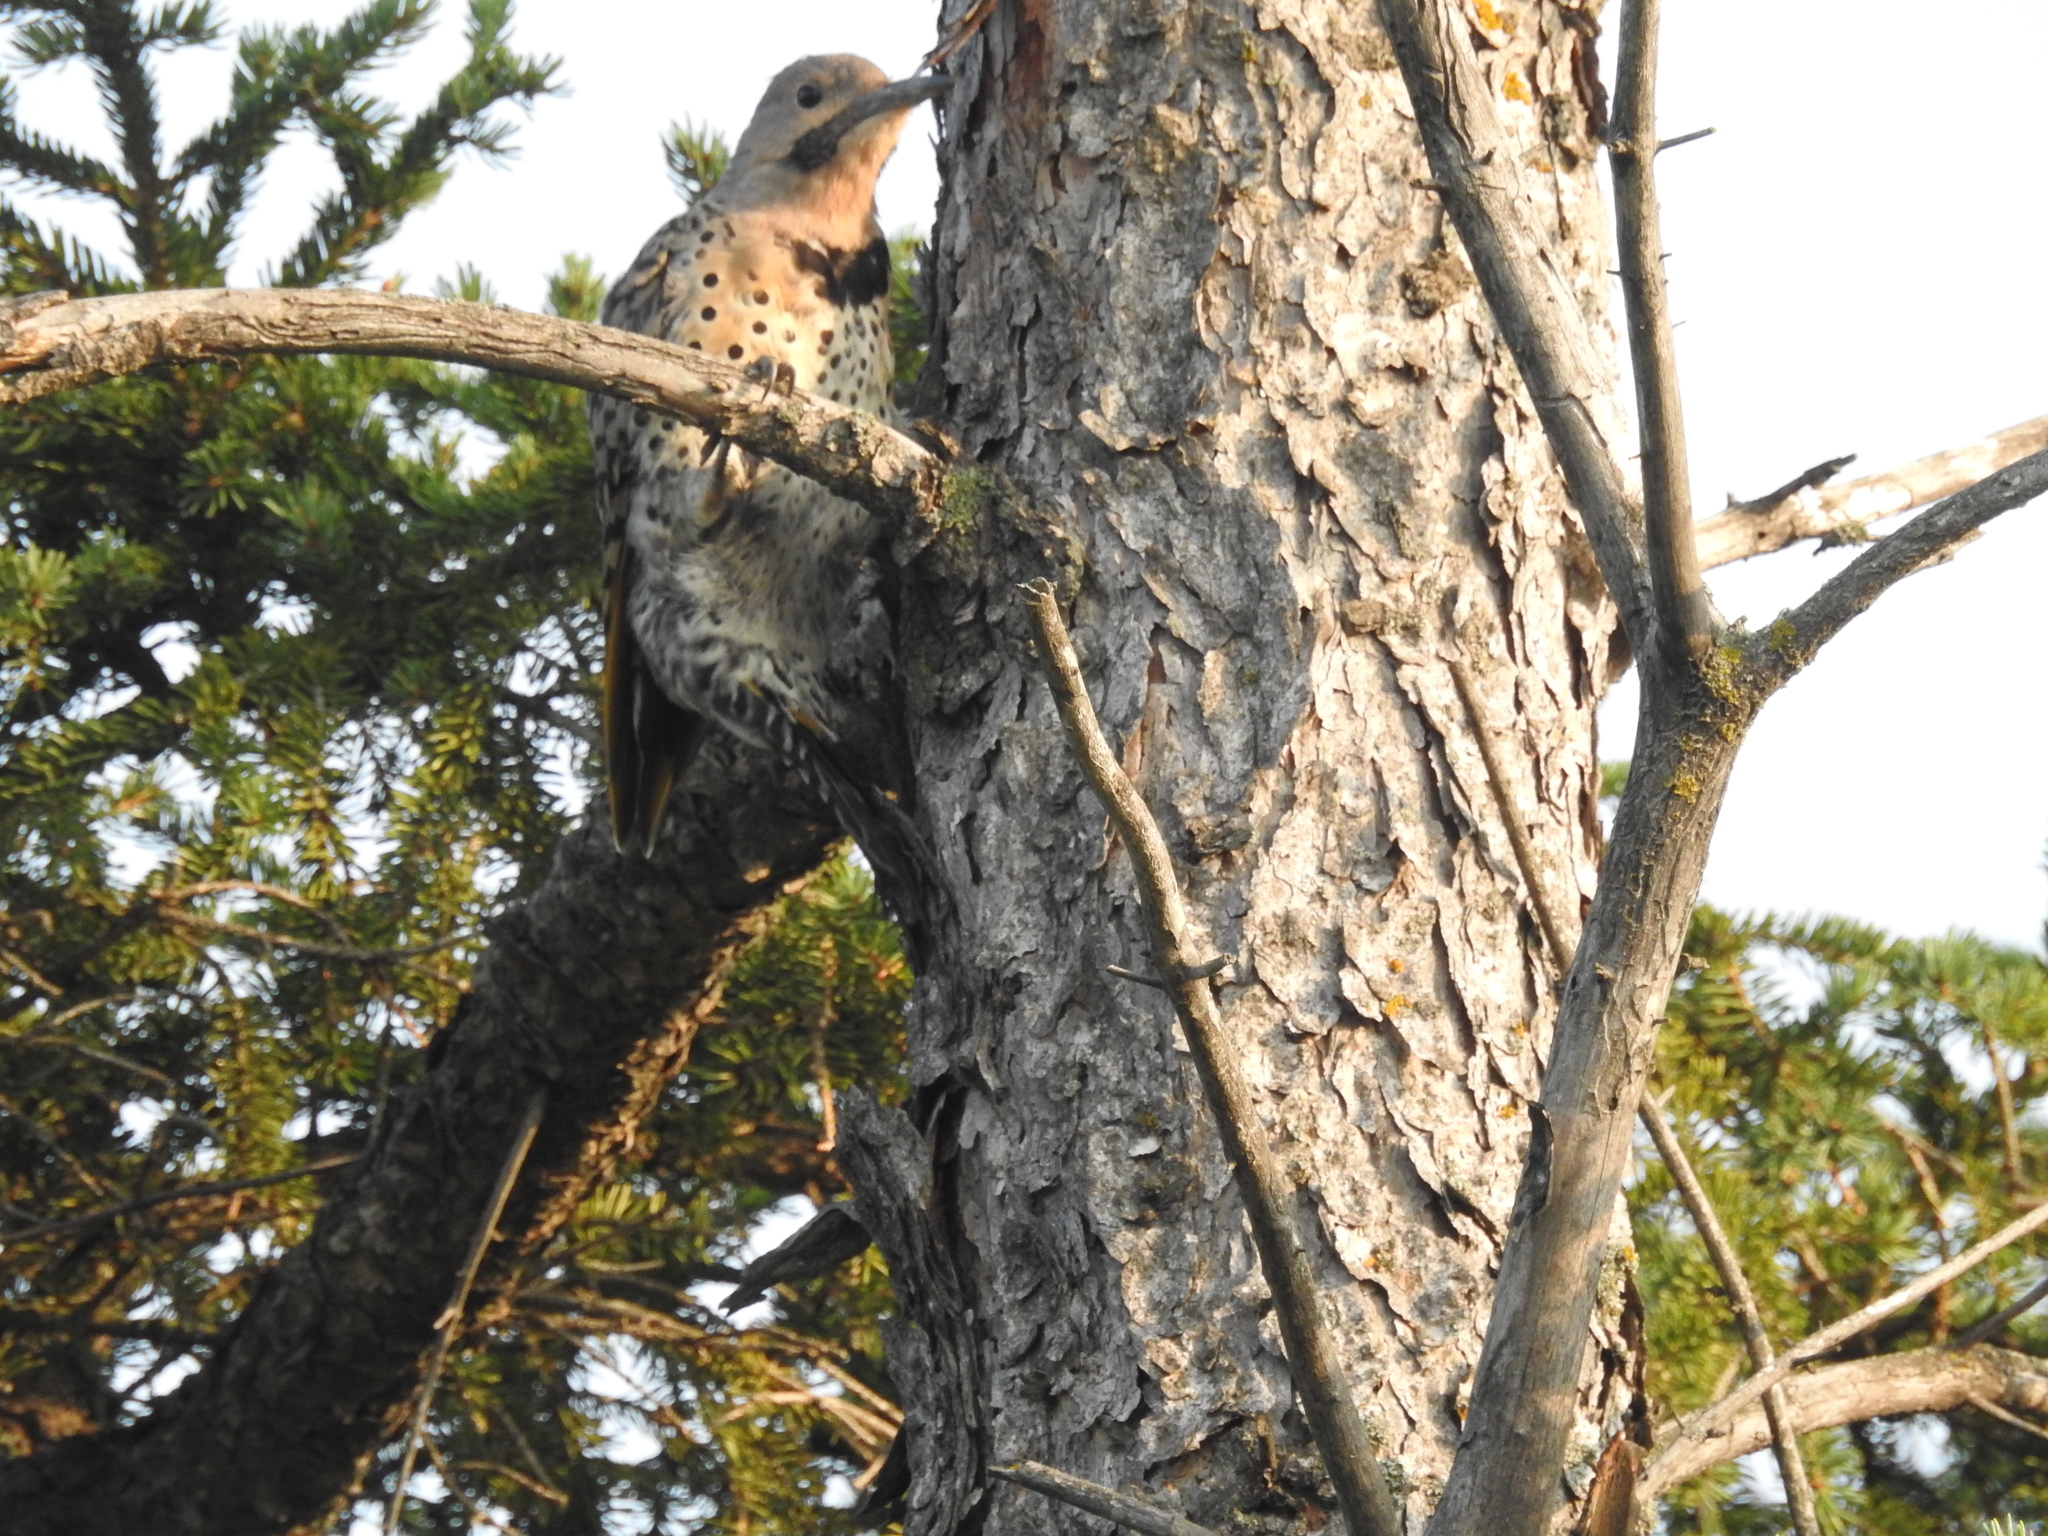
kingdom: Animalia
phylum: Chordata
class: Aves
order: Piciformes
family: Picidae
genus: Colaptes
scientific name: Colaptes auratus
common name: Northern flicker
